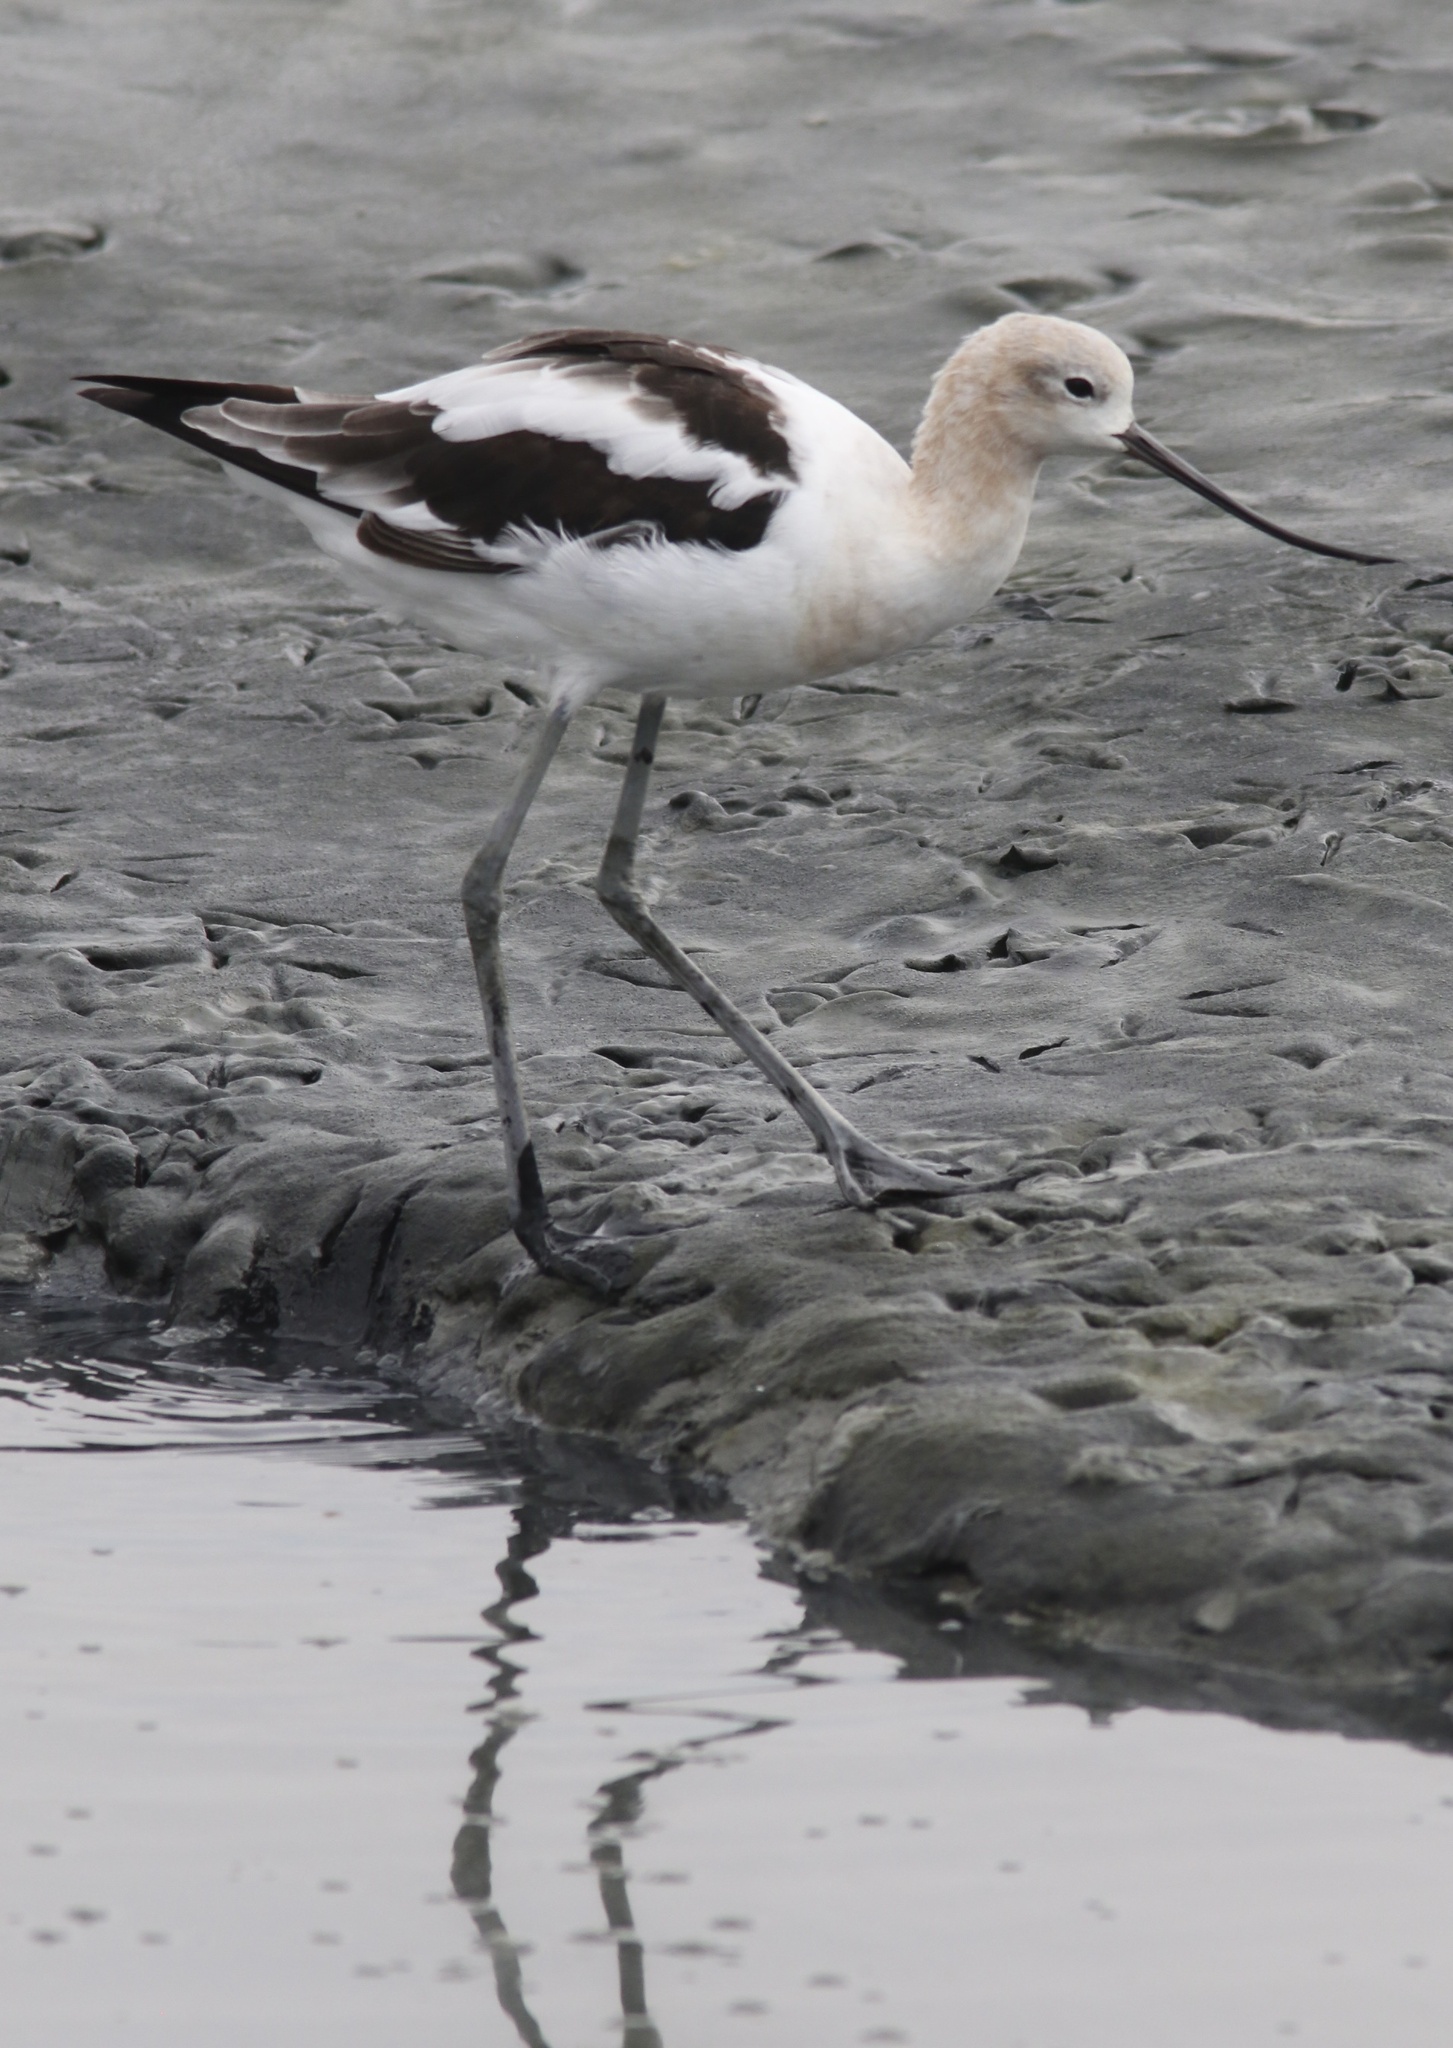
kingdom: Animalia
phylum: Chordata
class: Aves
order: Charadriiformes
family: Recurvirostridae
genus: Recurvirostra
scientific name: Recurvirostra americana
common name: American avocet
